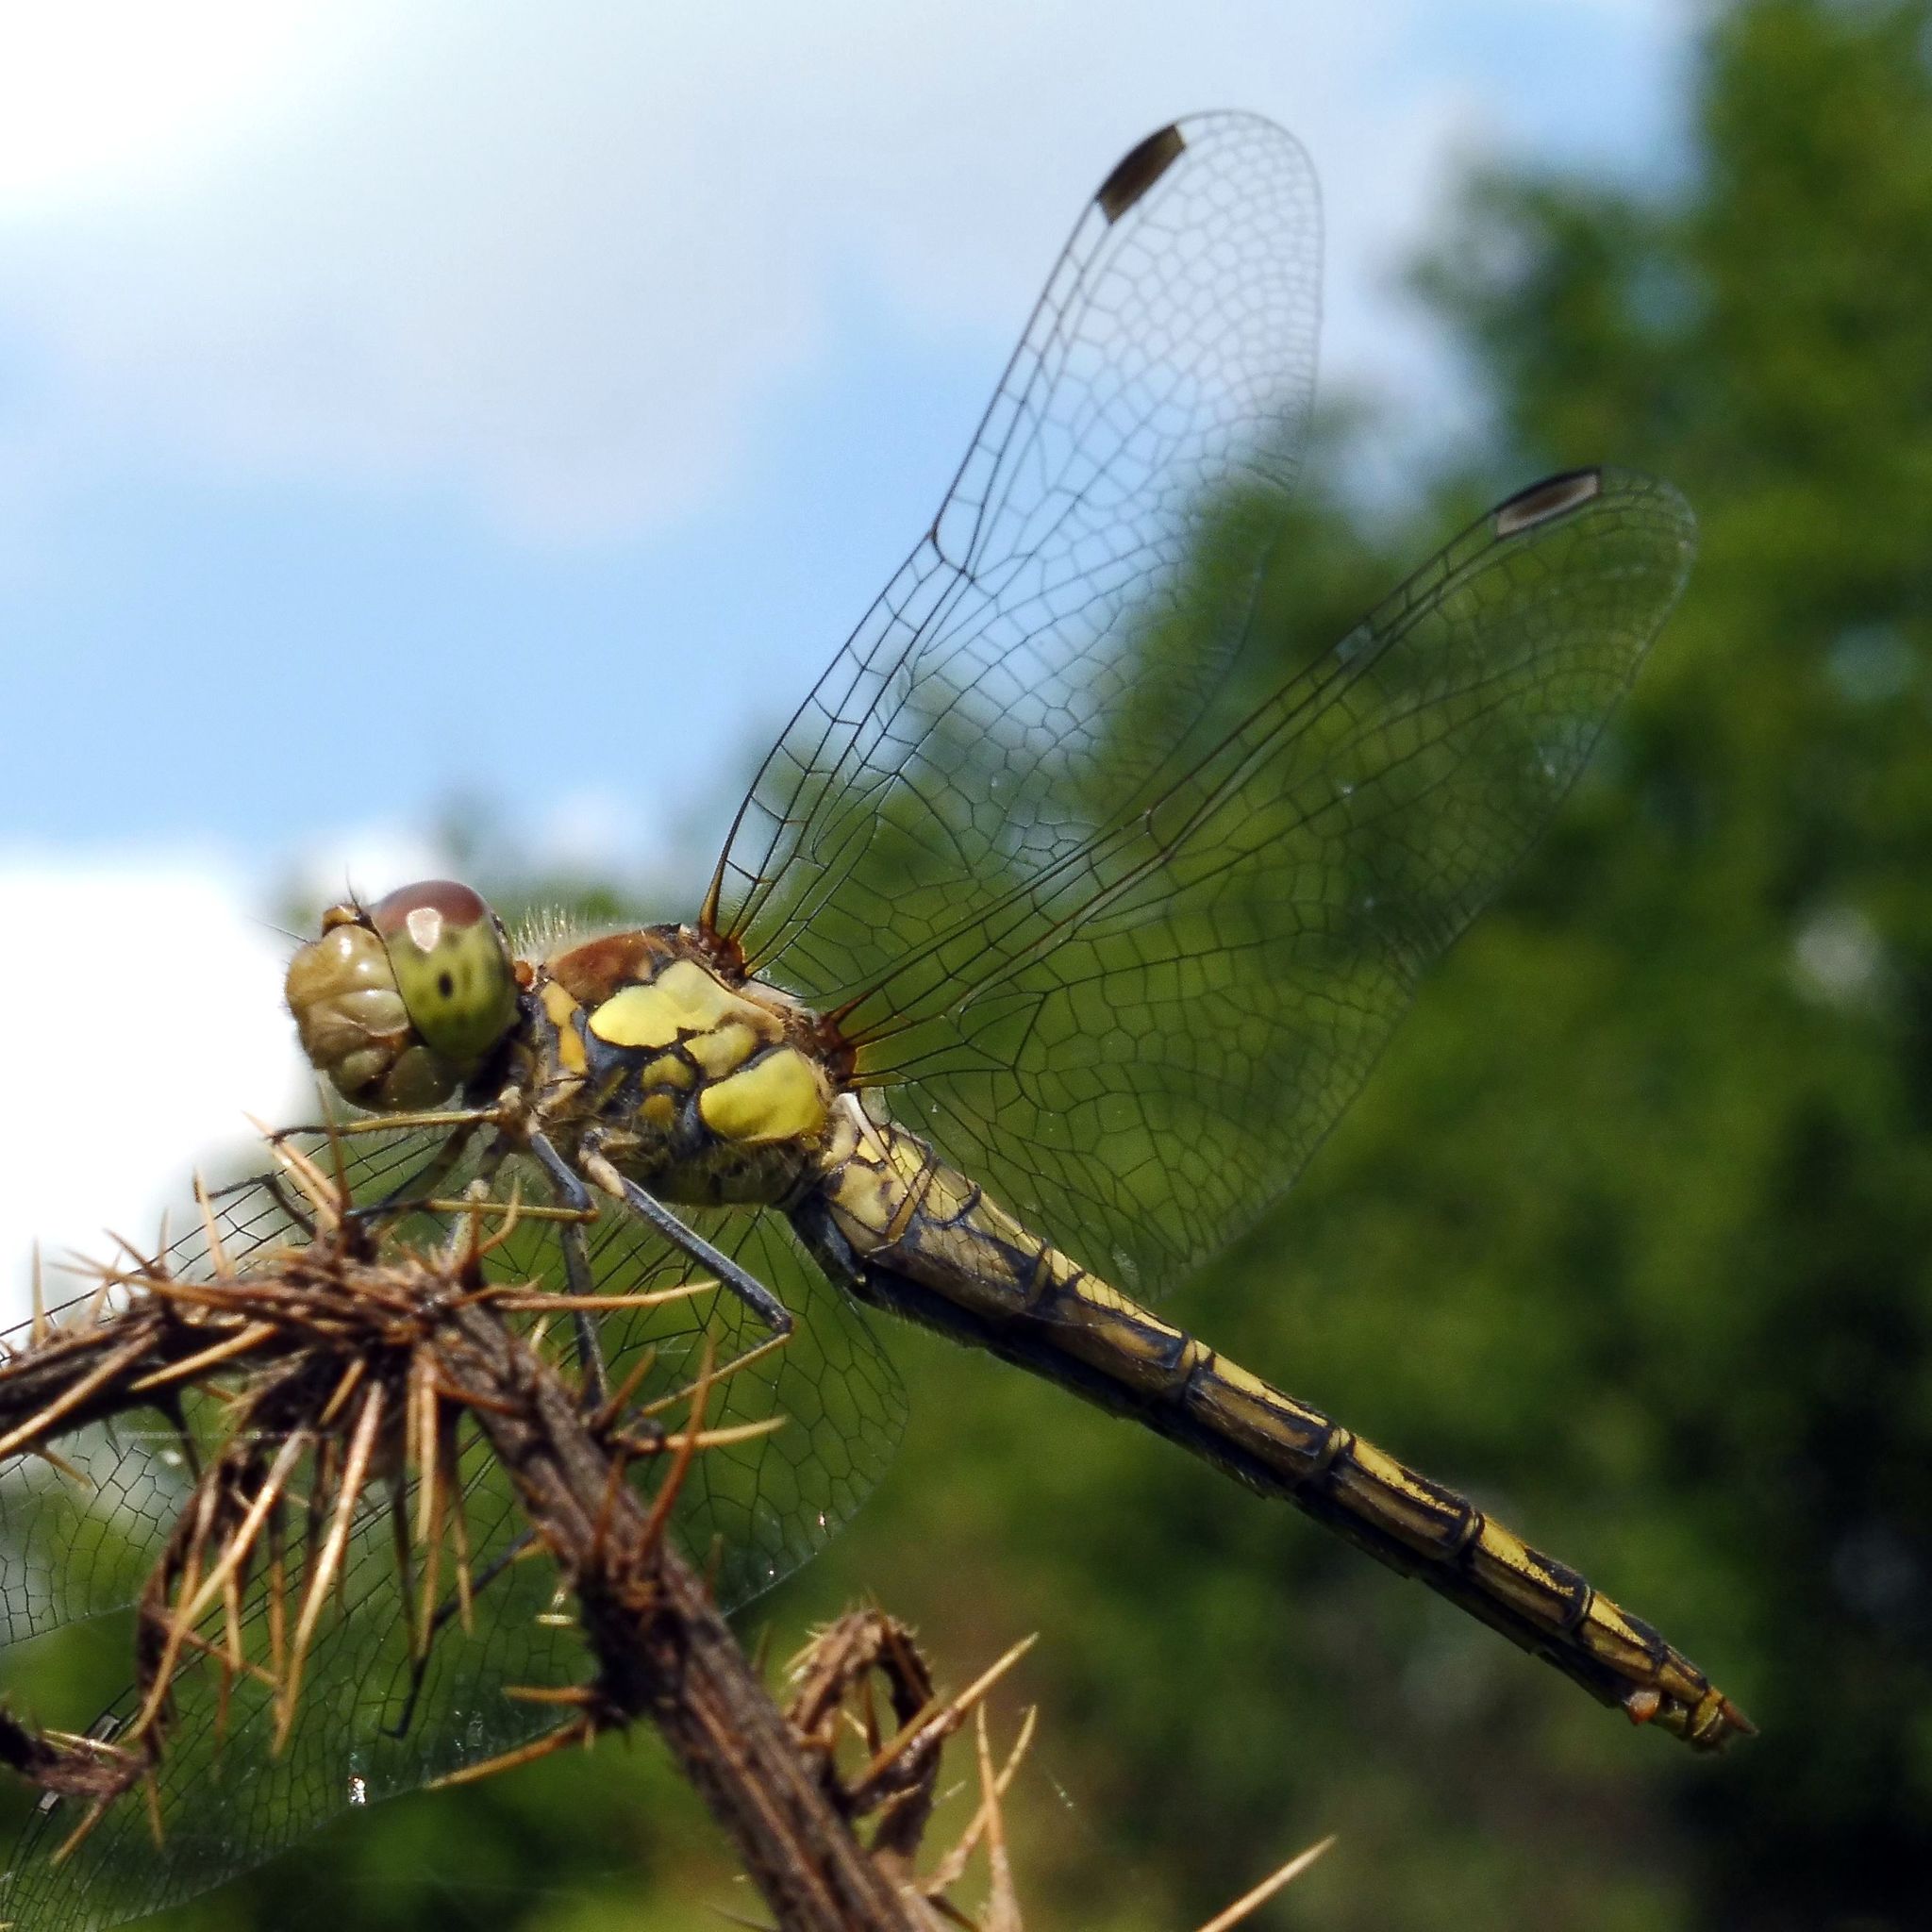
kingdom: Animalia
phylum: Arthropoda
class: Insecta
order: Odonata
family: Libellulidae
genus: Sympetrum
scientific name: Sympetrum striolatum
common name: Common darter
